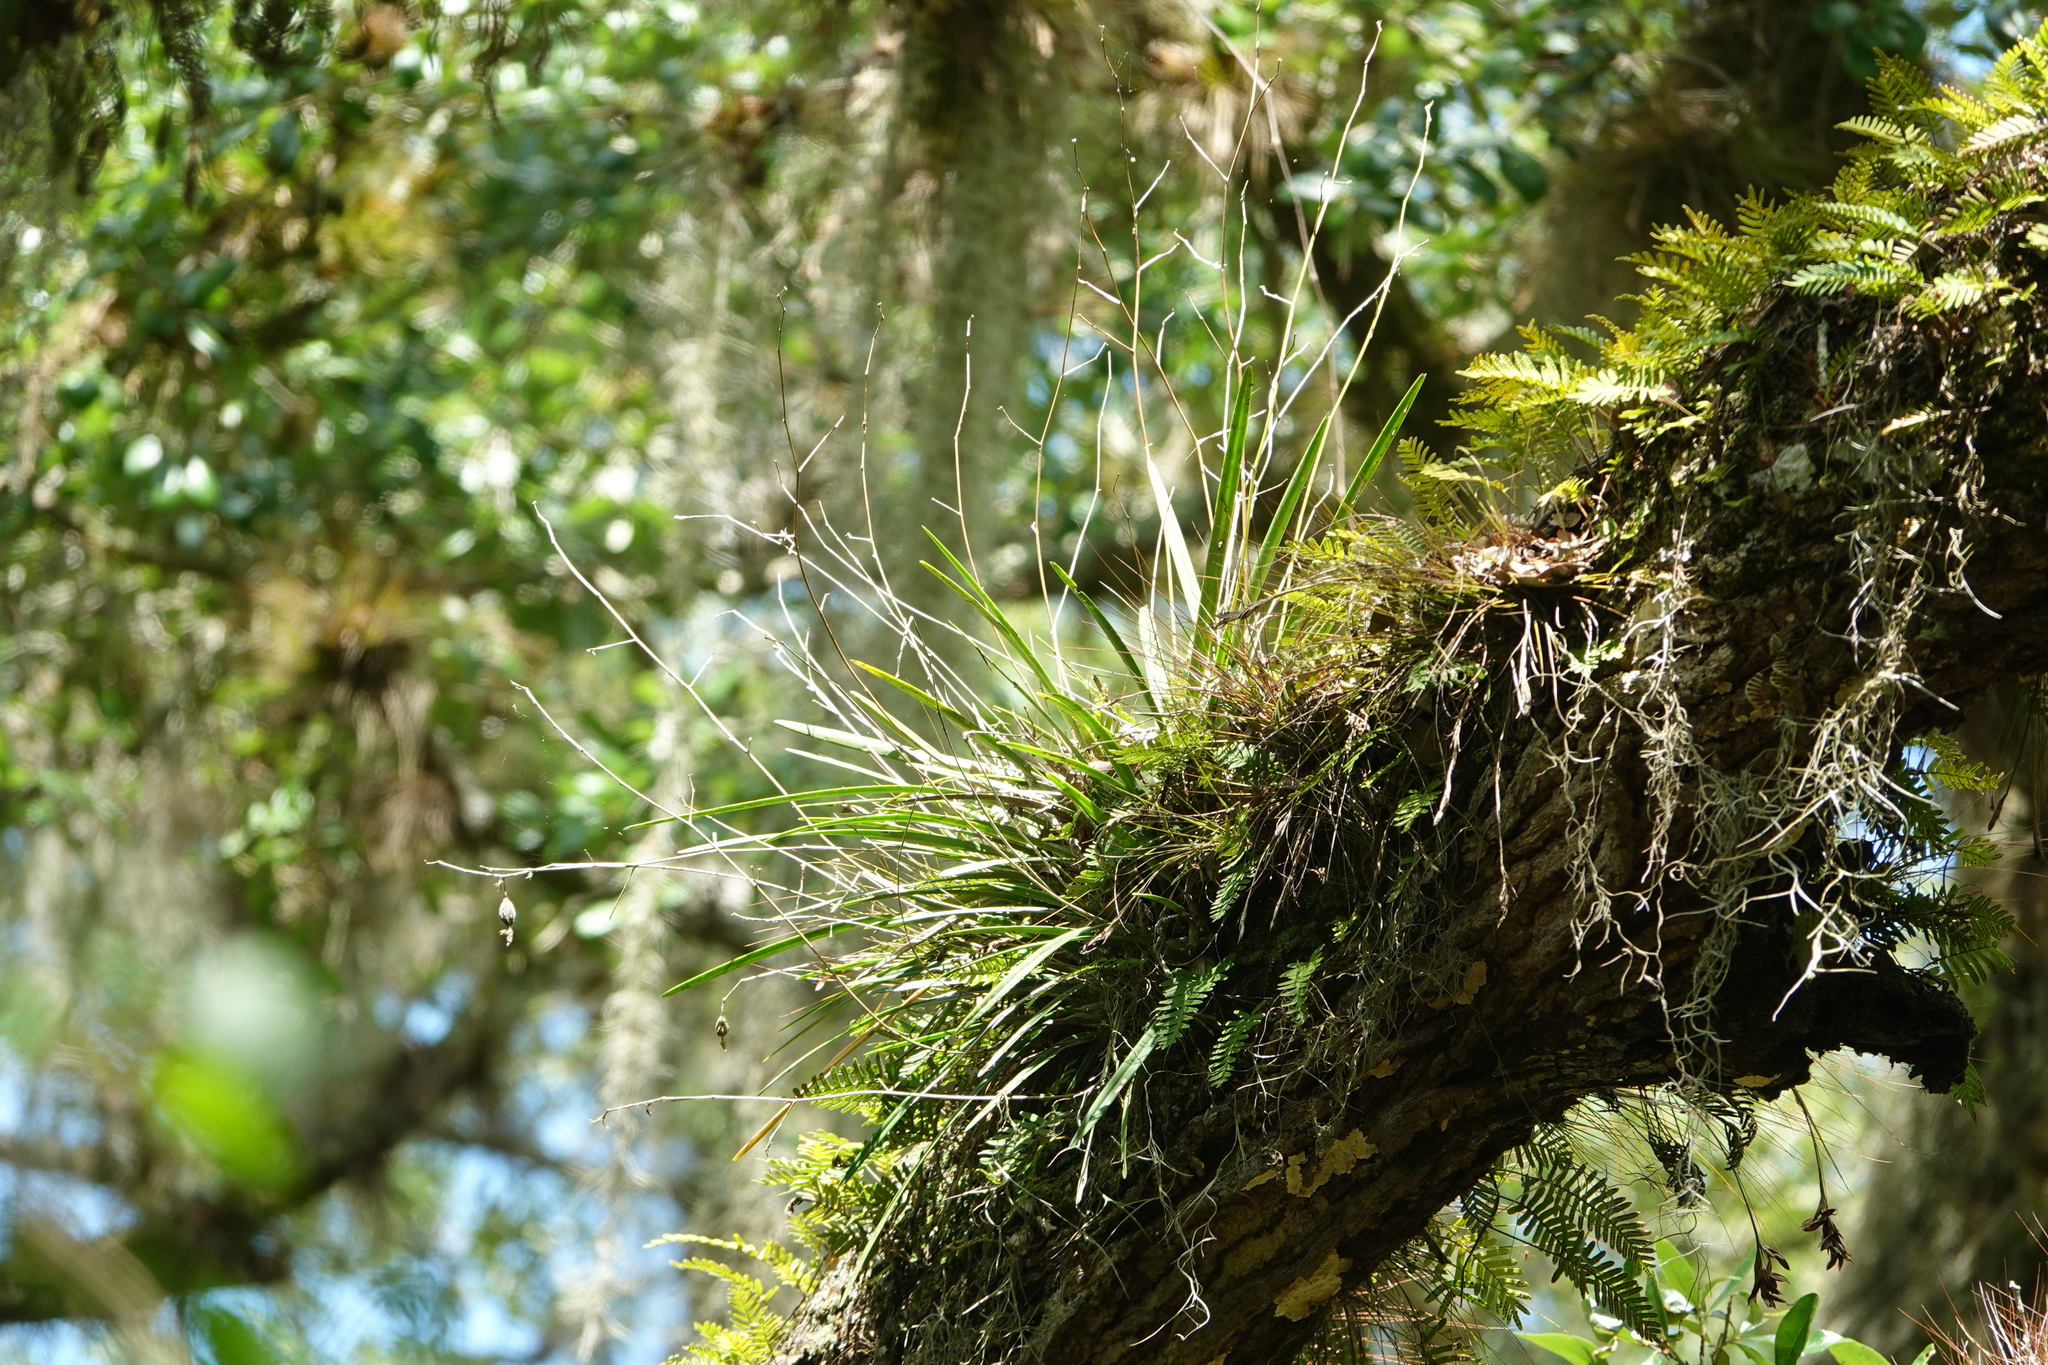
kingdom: Plantae
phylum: Tracheophyta
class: Liliopsida
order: Asparagales
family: Orchidaceae
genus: Encyclia
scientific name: Encyclia tampensis
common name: Florida butterfly orchid
